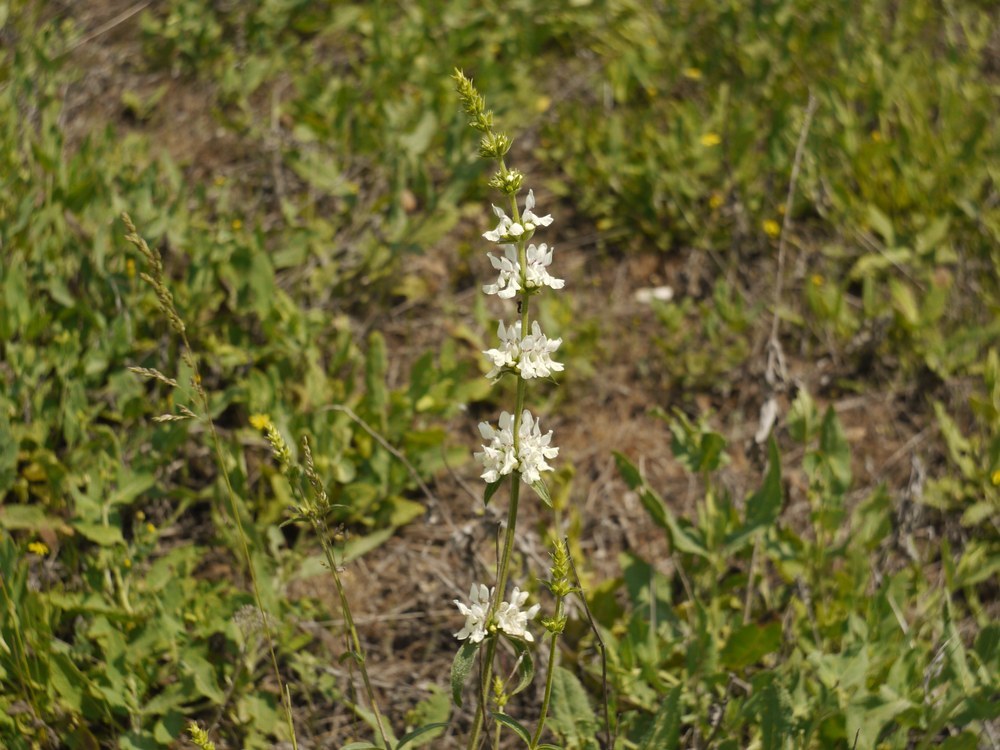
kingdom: Plantae
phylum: Tracheophyta
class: Magnoliopsida
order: Lamiales
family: Lamiaceae
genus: Stachys
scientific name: Stachys recta
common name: Perennial yellow-woundwort
